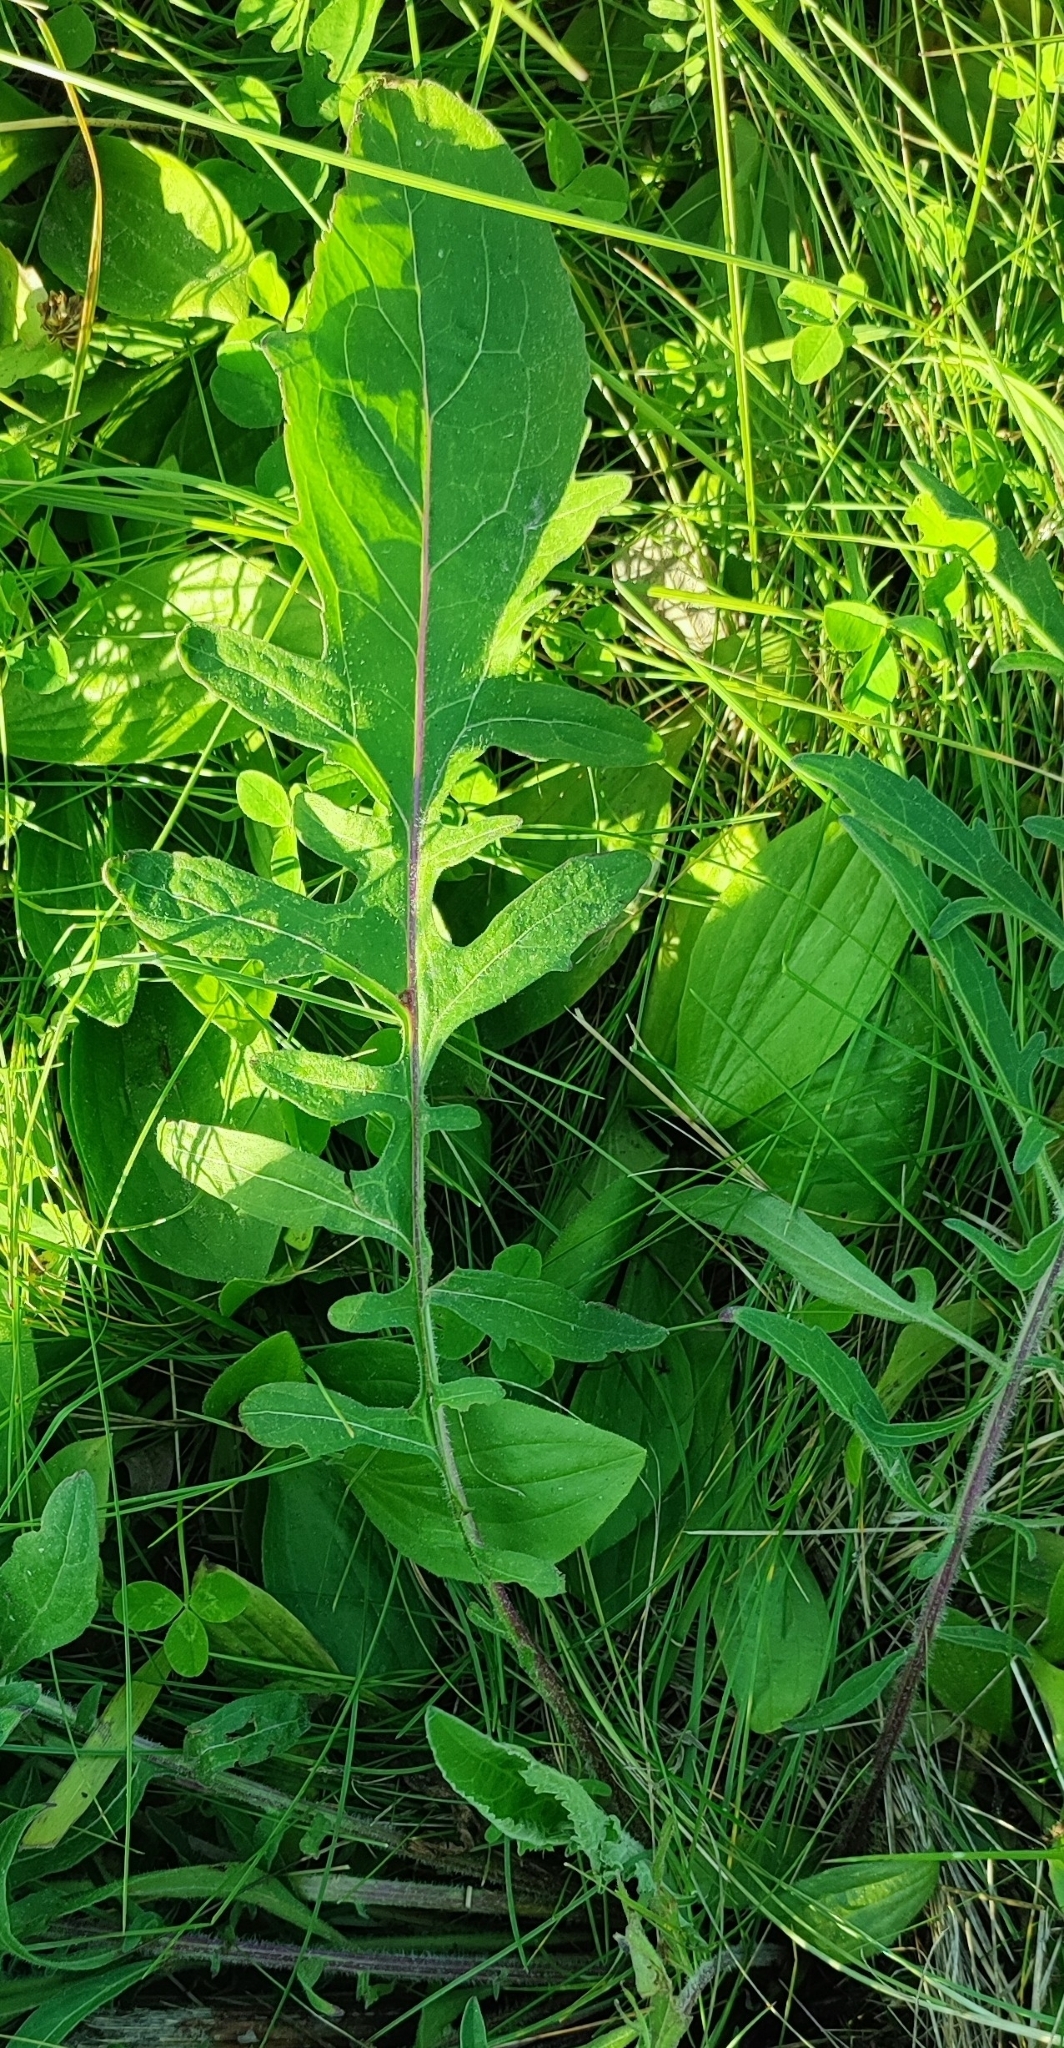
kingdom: Plantae
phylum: Tracheophyta
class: Magnoliopsida
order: Asterales
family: Asteraceae
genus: Centaurea
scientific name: Centaurea scabiosa
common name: Greater knapweed
